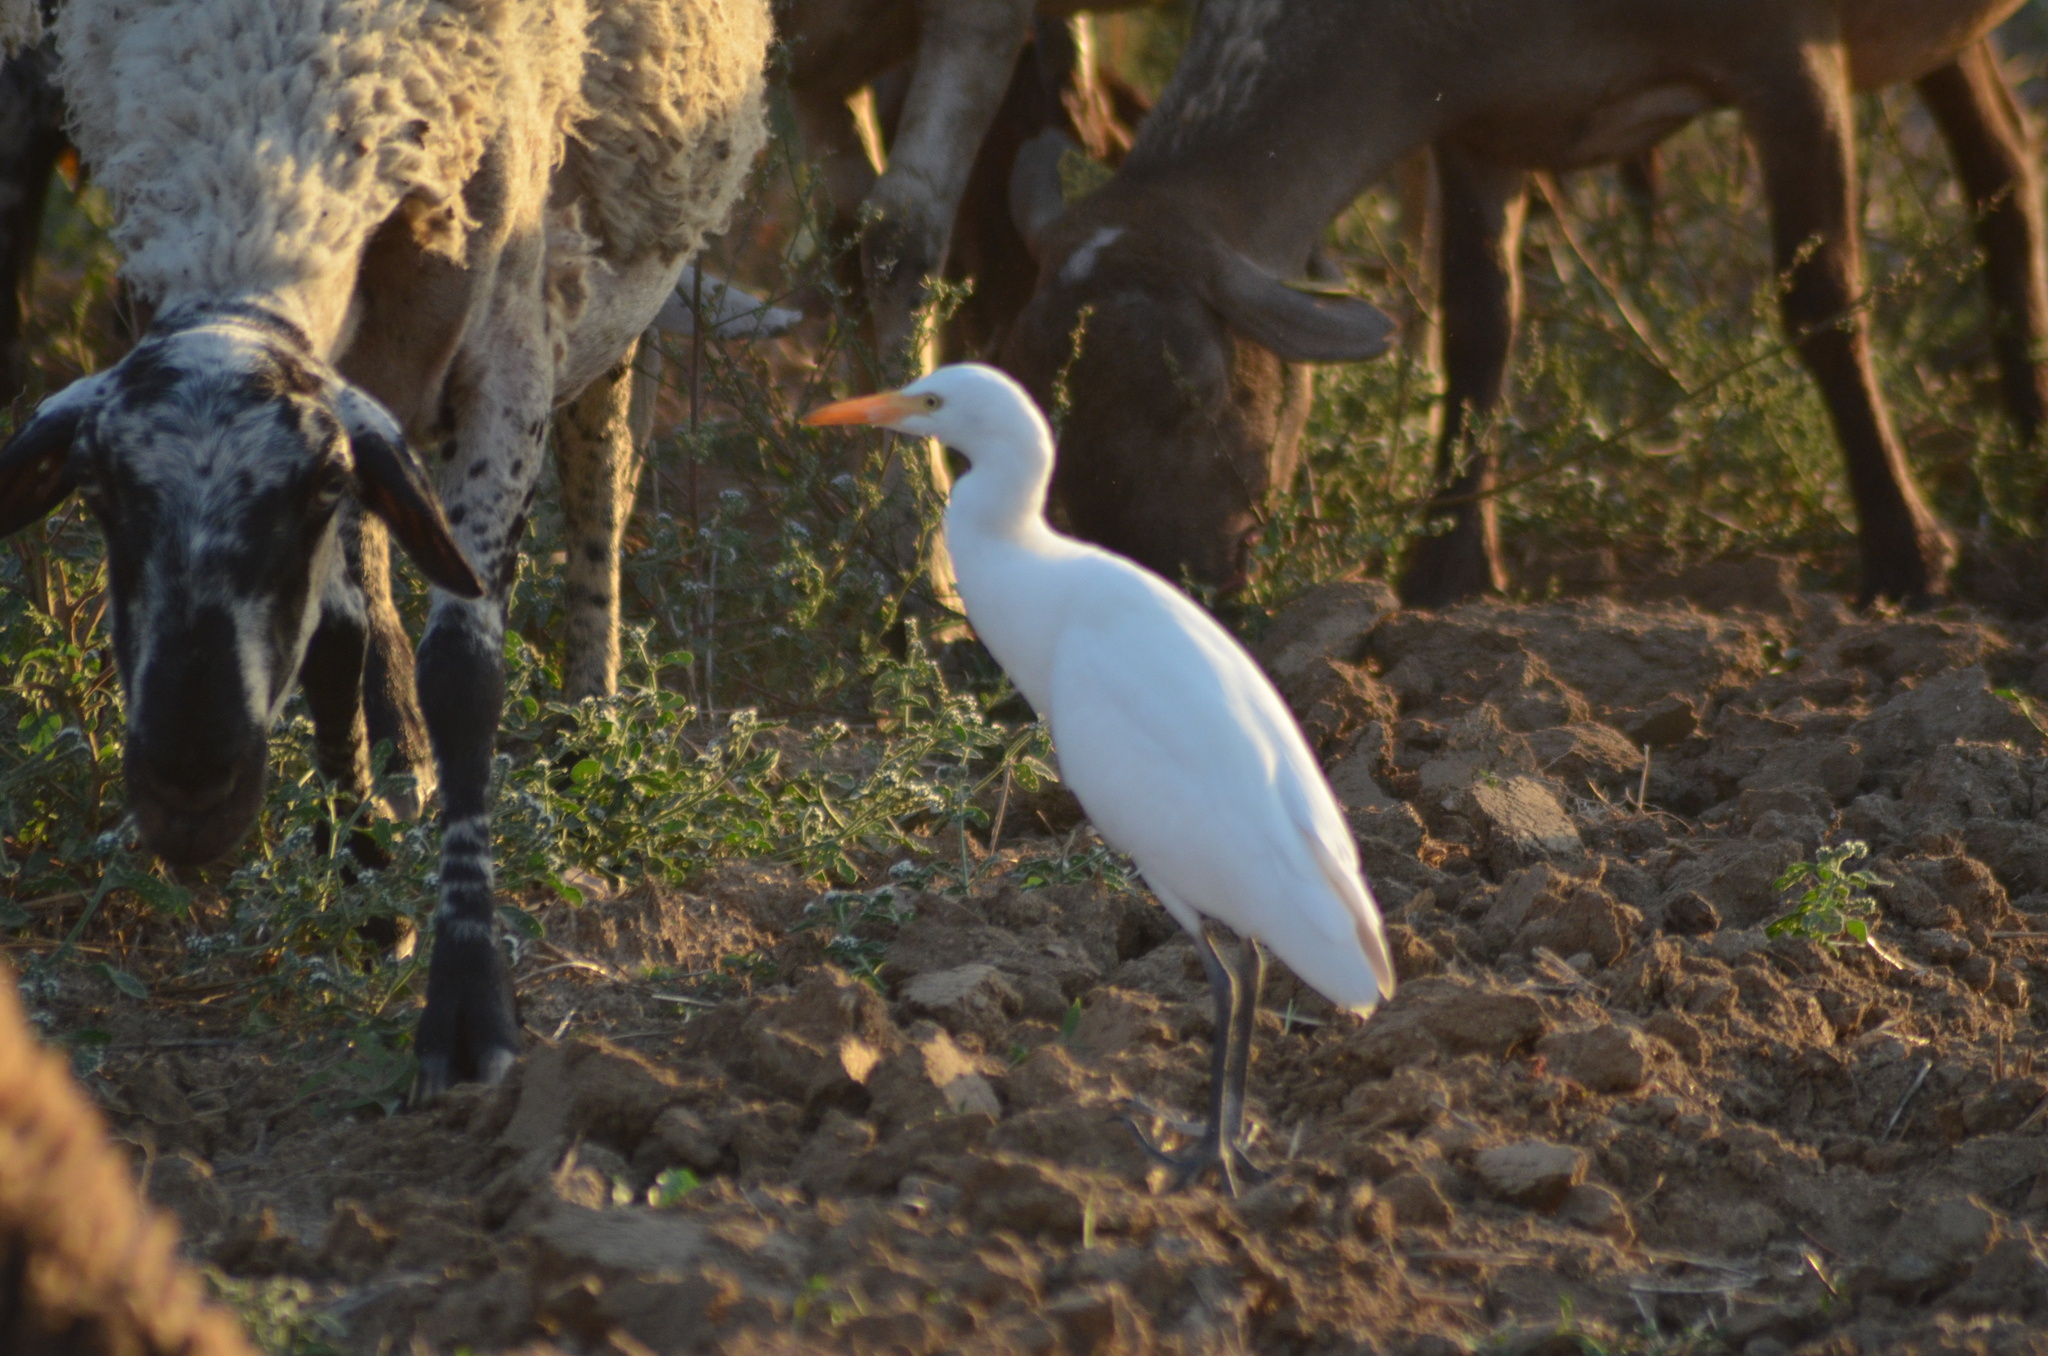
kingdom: Animalia
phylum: Chordata
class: Aves
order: Pelecaniformes
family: Ardeidae
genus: Bubulcus
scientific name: Bubulcus ibis
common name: Cattle egret
